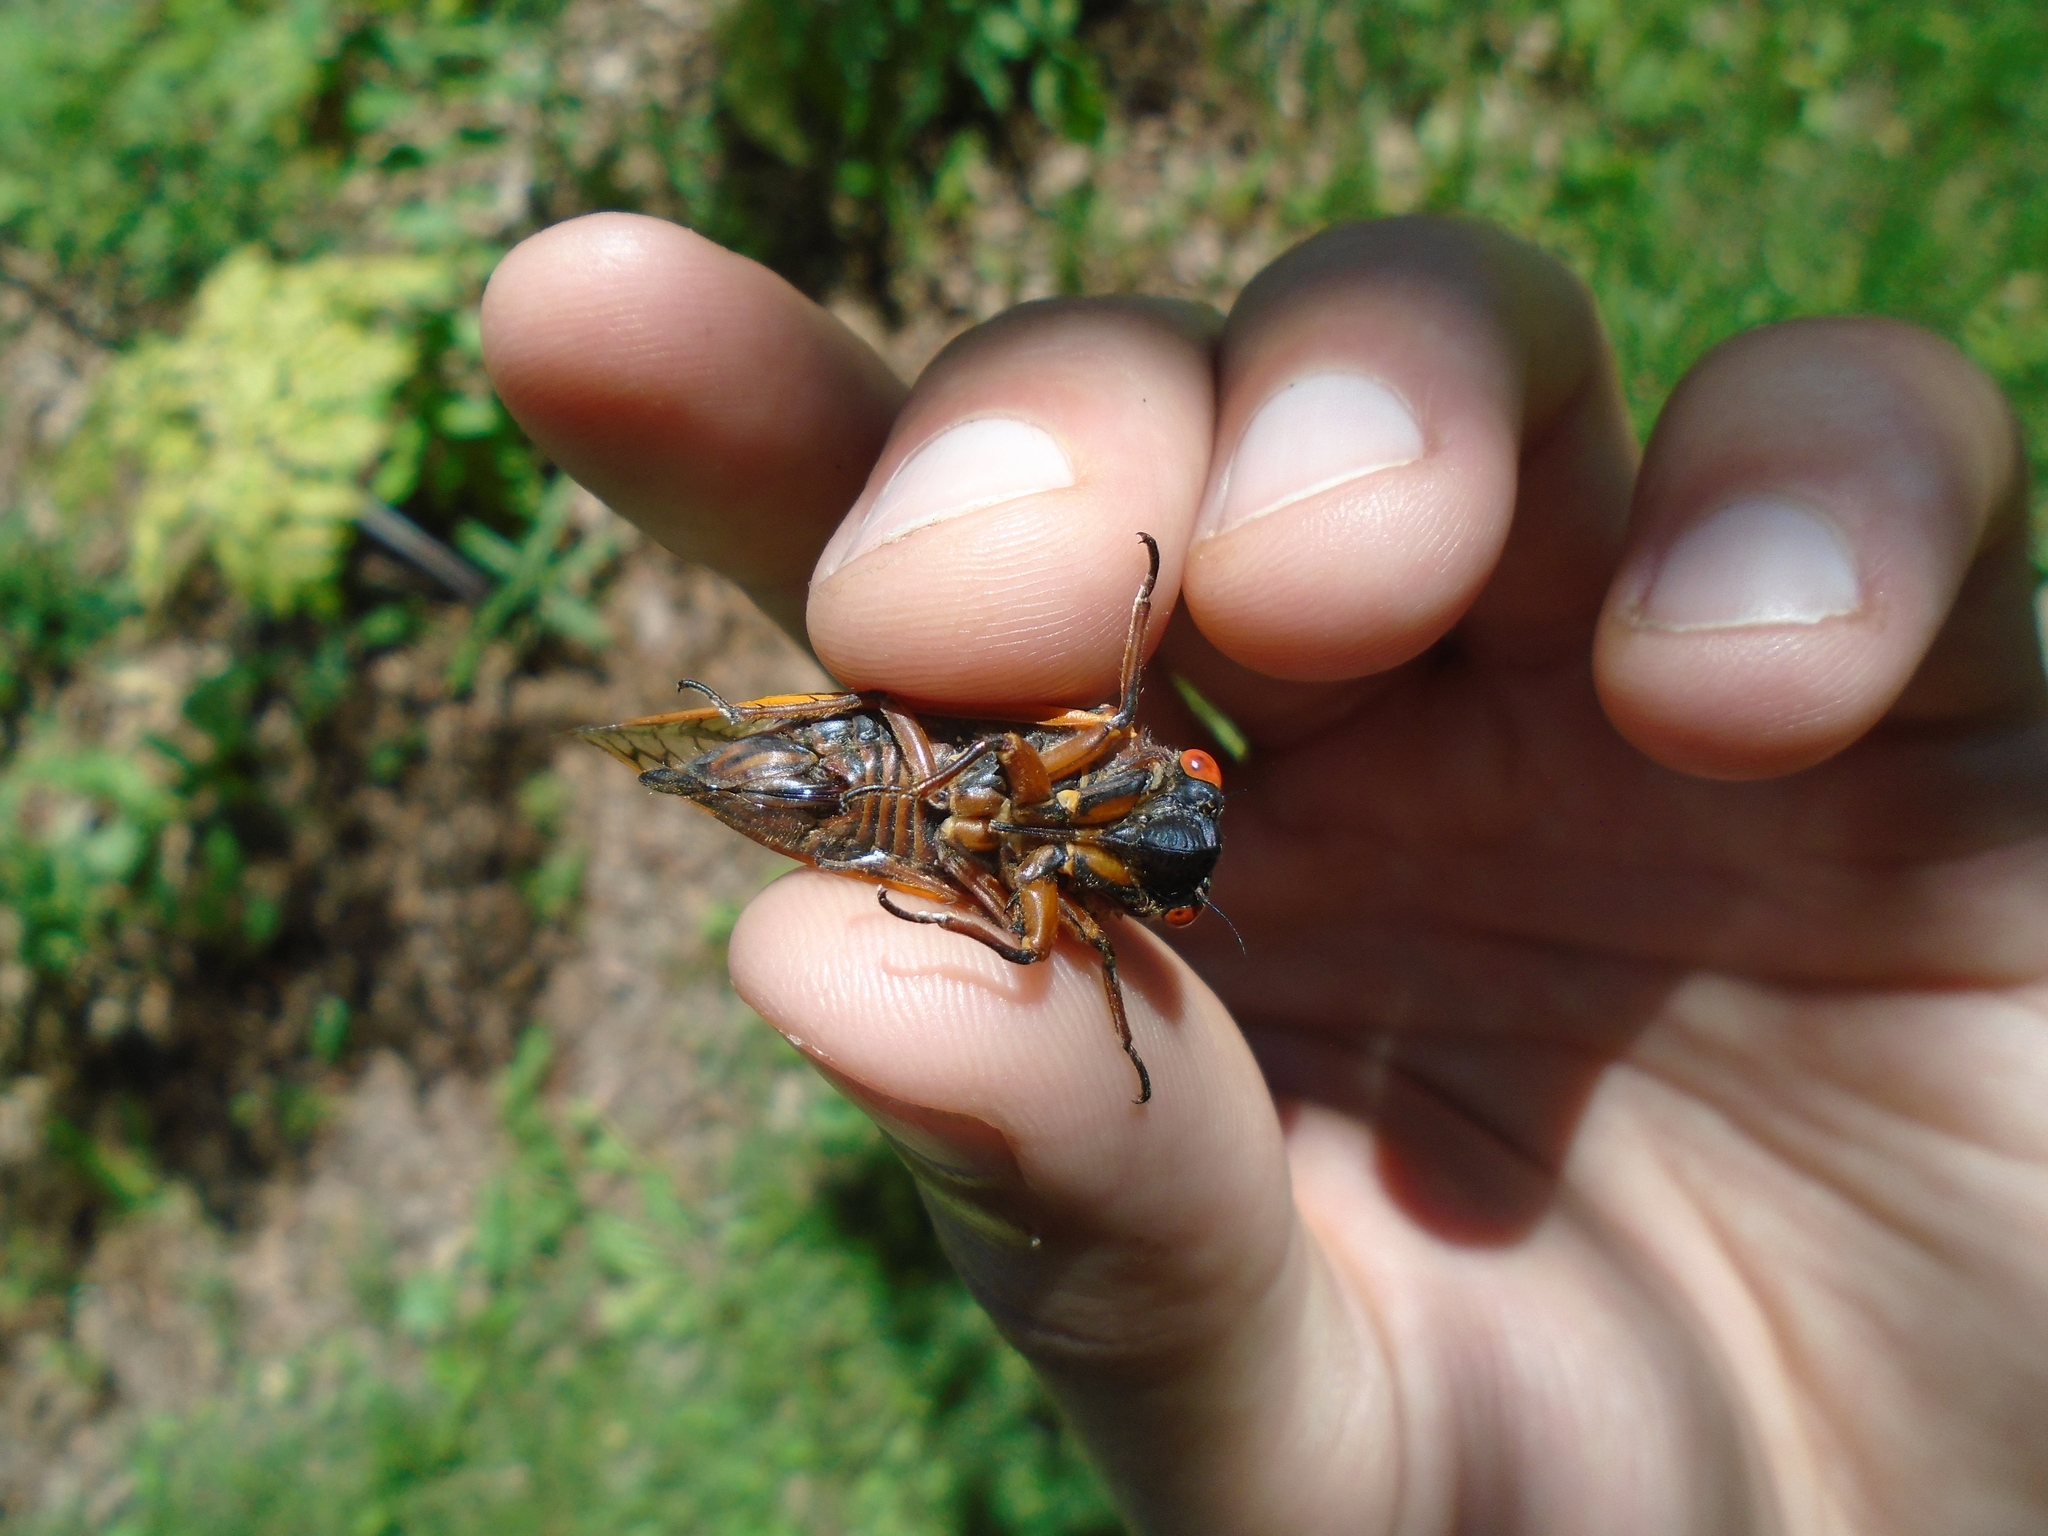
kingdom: Animalia
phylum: Arthropoda
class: Insecta
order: Hemiptera
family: Cicadidae
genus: Magicicada
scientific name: Magicicada septendecim
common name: Periodical cicada
